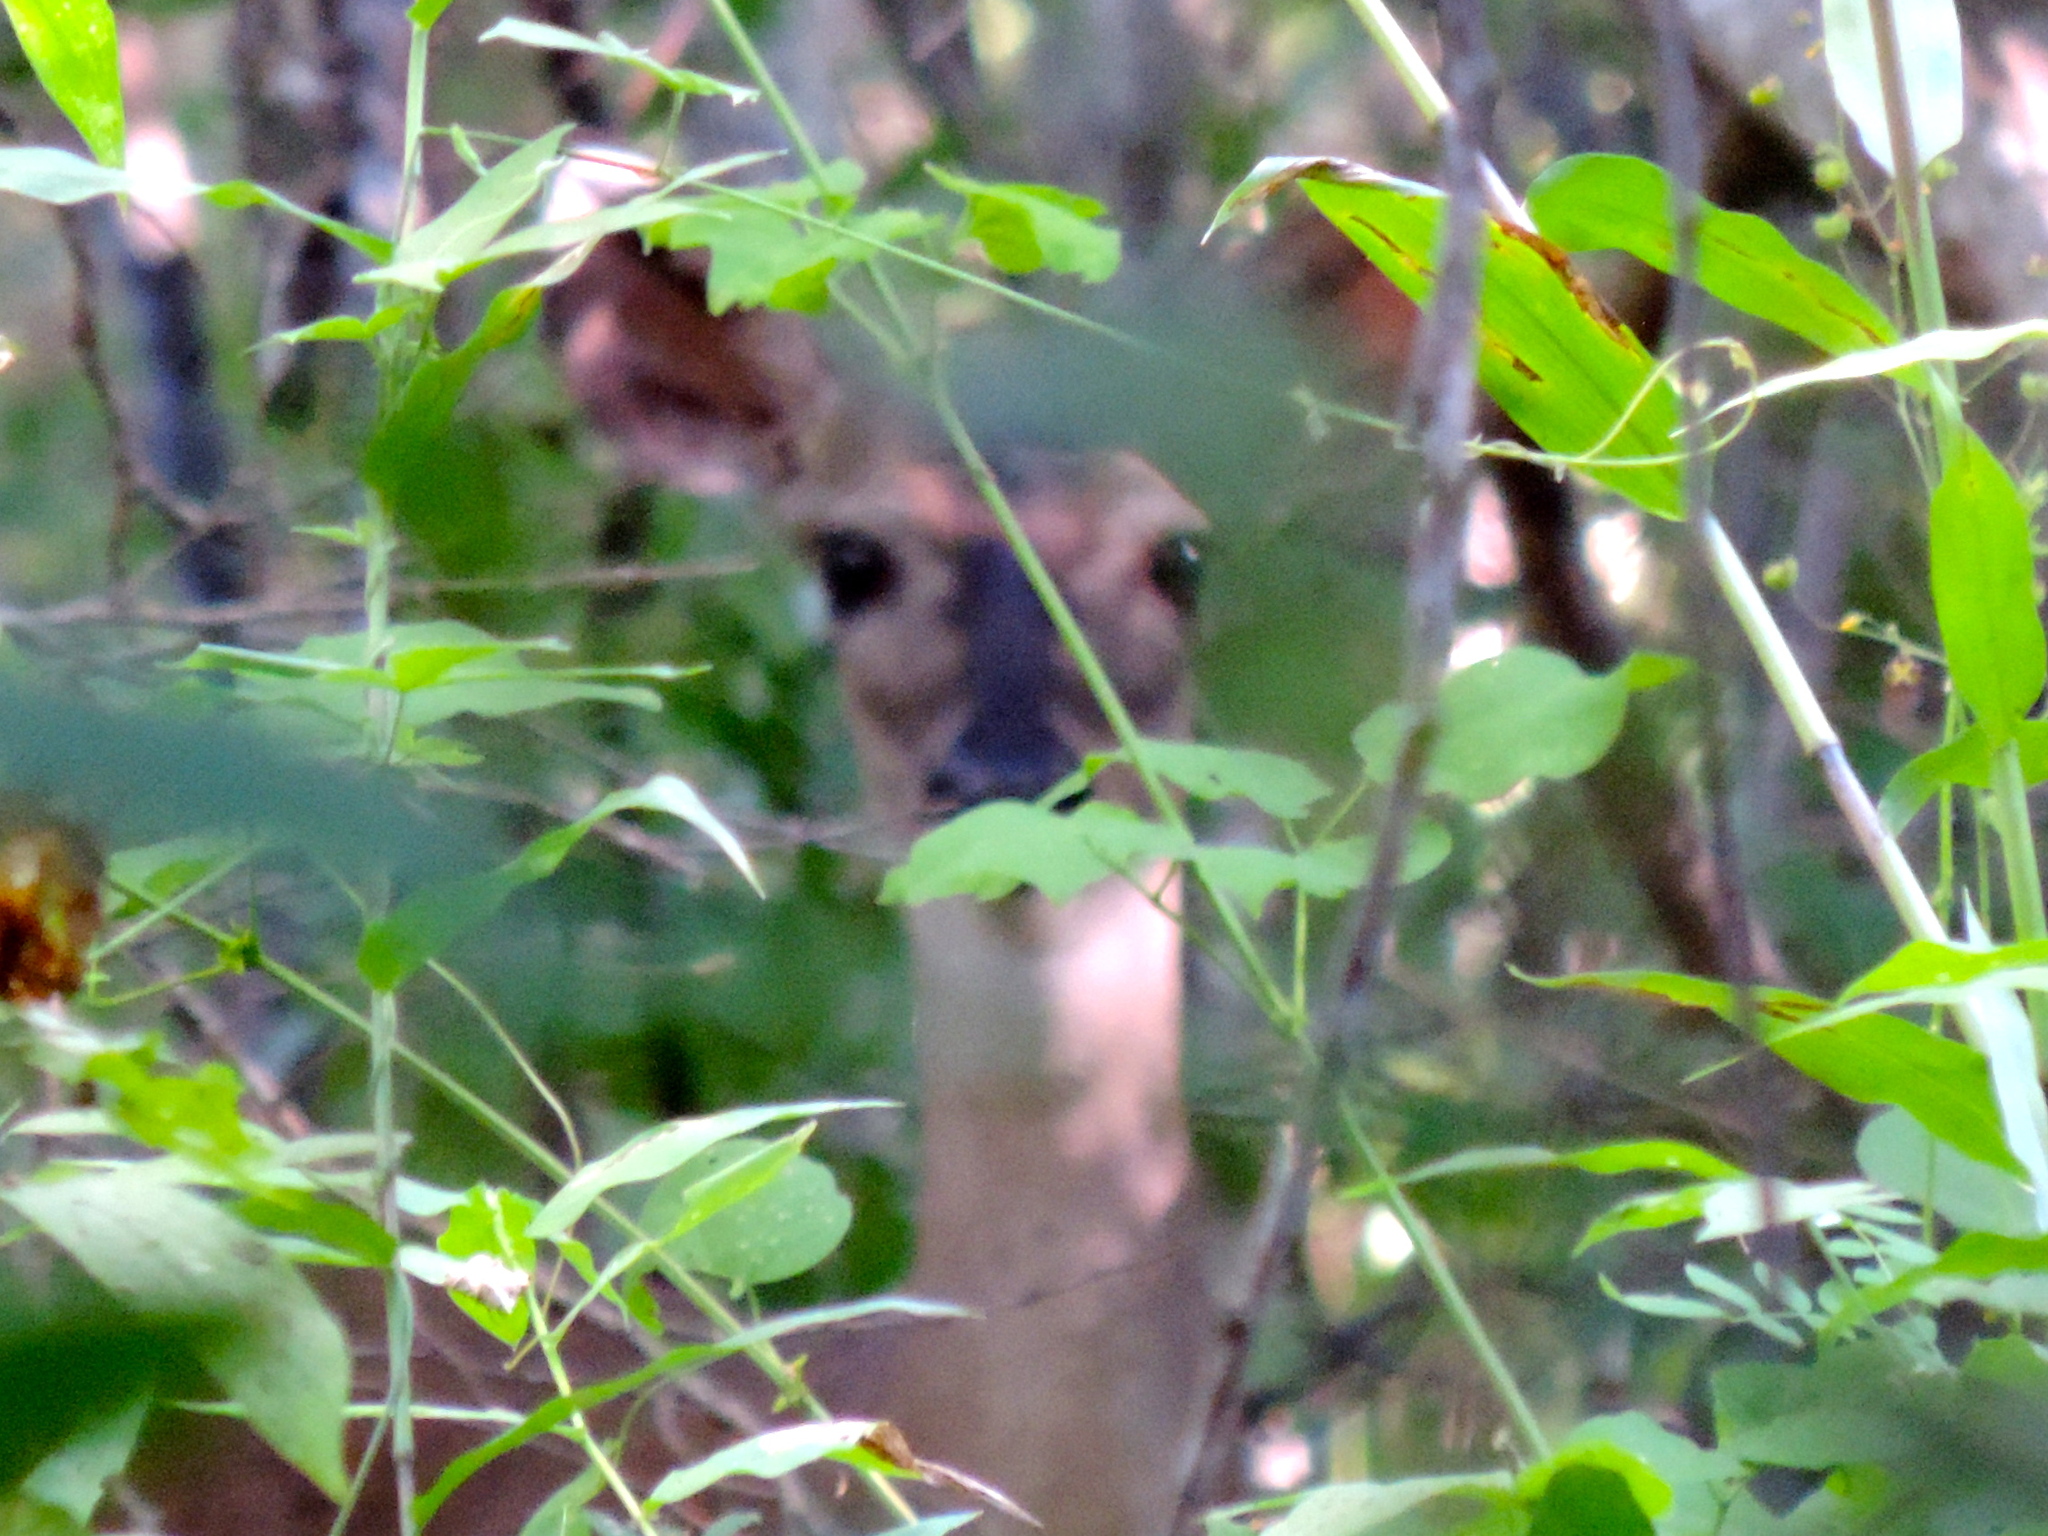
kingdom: Animalia
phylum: Chordata
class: Mammalia
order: Artiodactyla
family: Cervidae
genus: Odocoileus
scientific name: Odocoileus virginianus
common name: White-tailed deer
